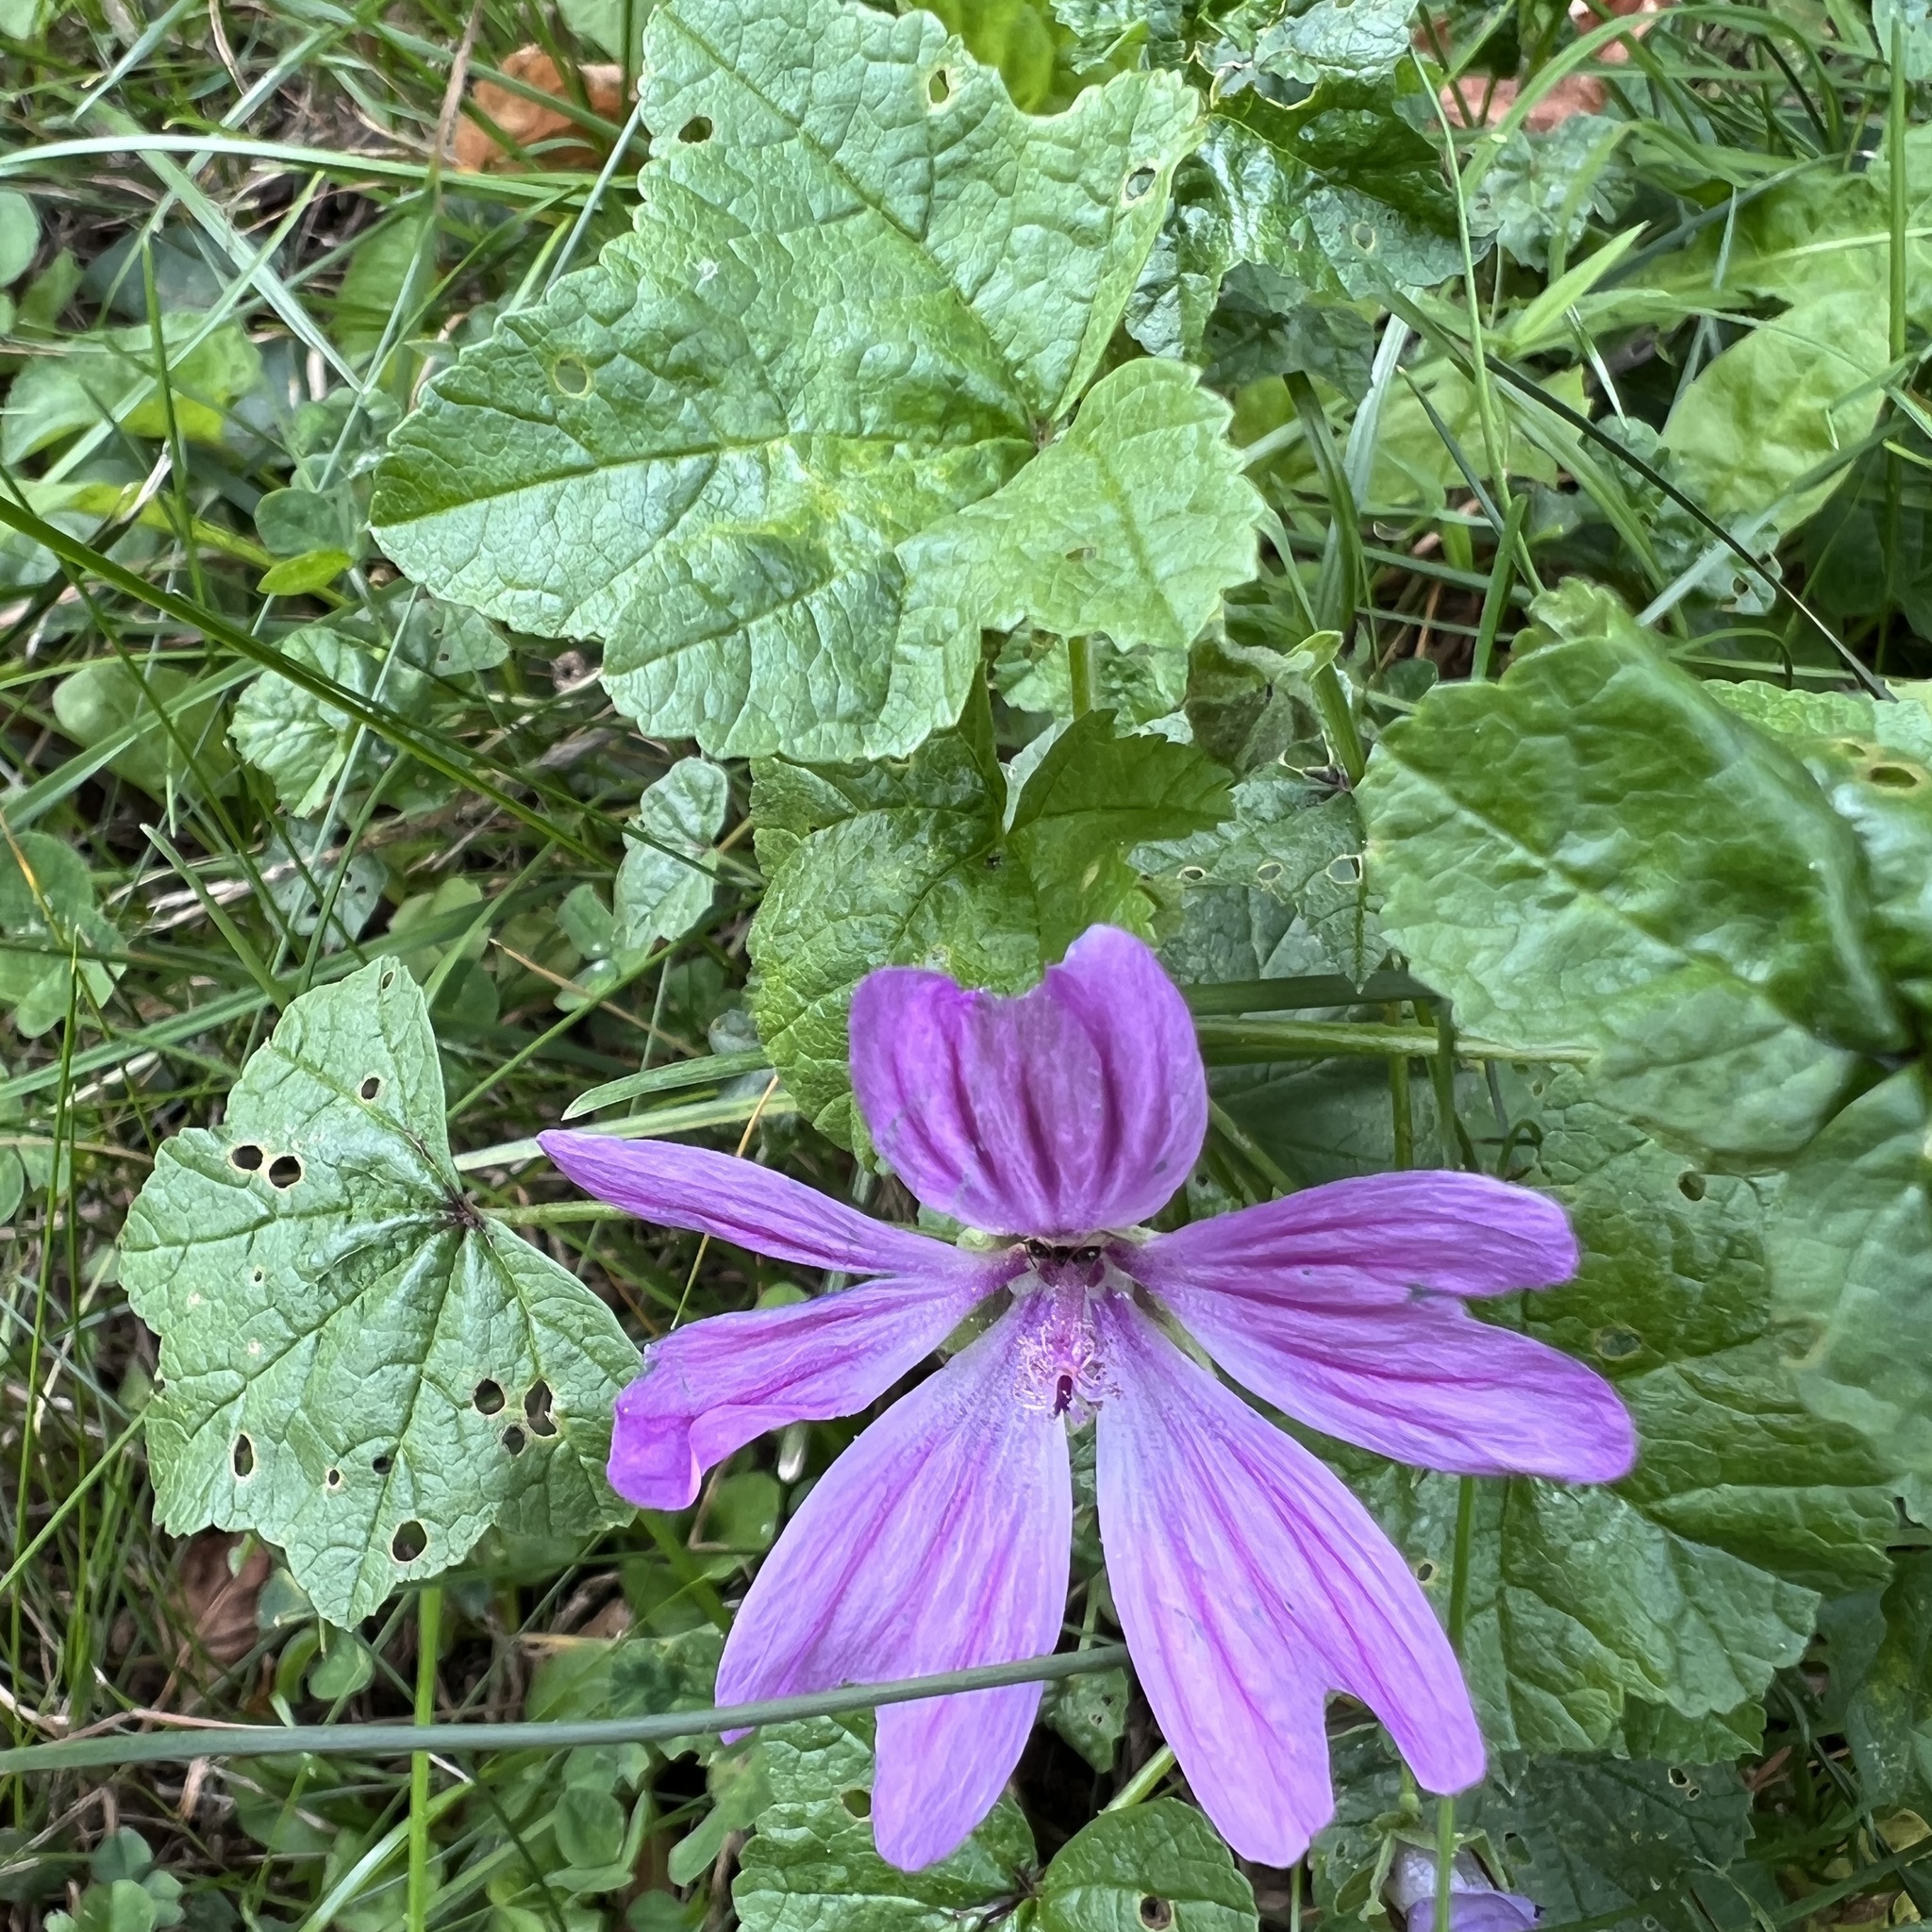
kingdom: Plantae
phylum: Tracheophyta
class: Magnoliopsida
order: Malvales
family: Malvaceae
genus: Malva
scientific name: Malva sylvestris
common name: Common mallow
